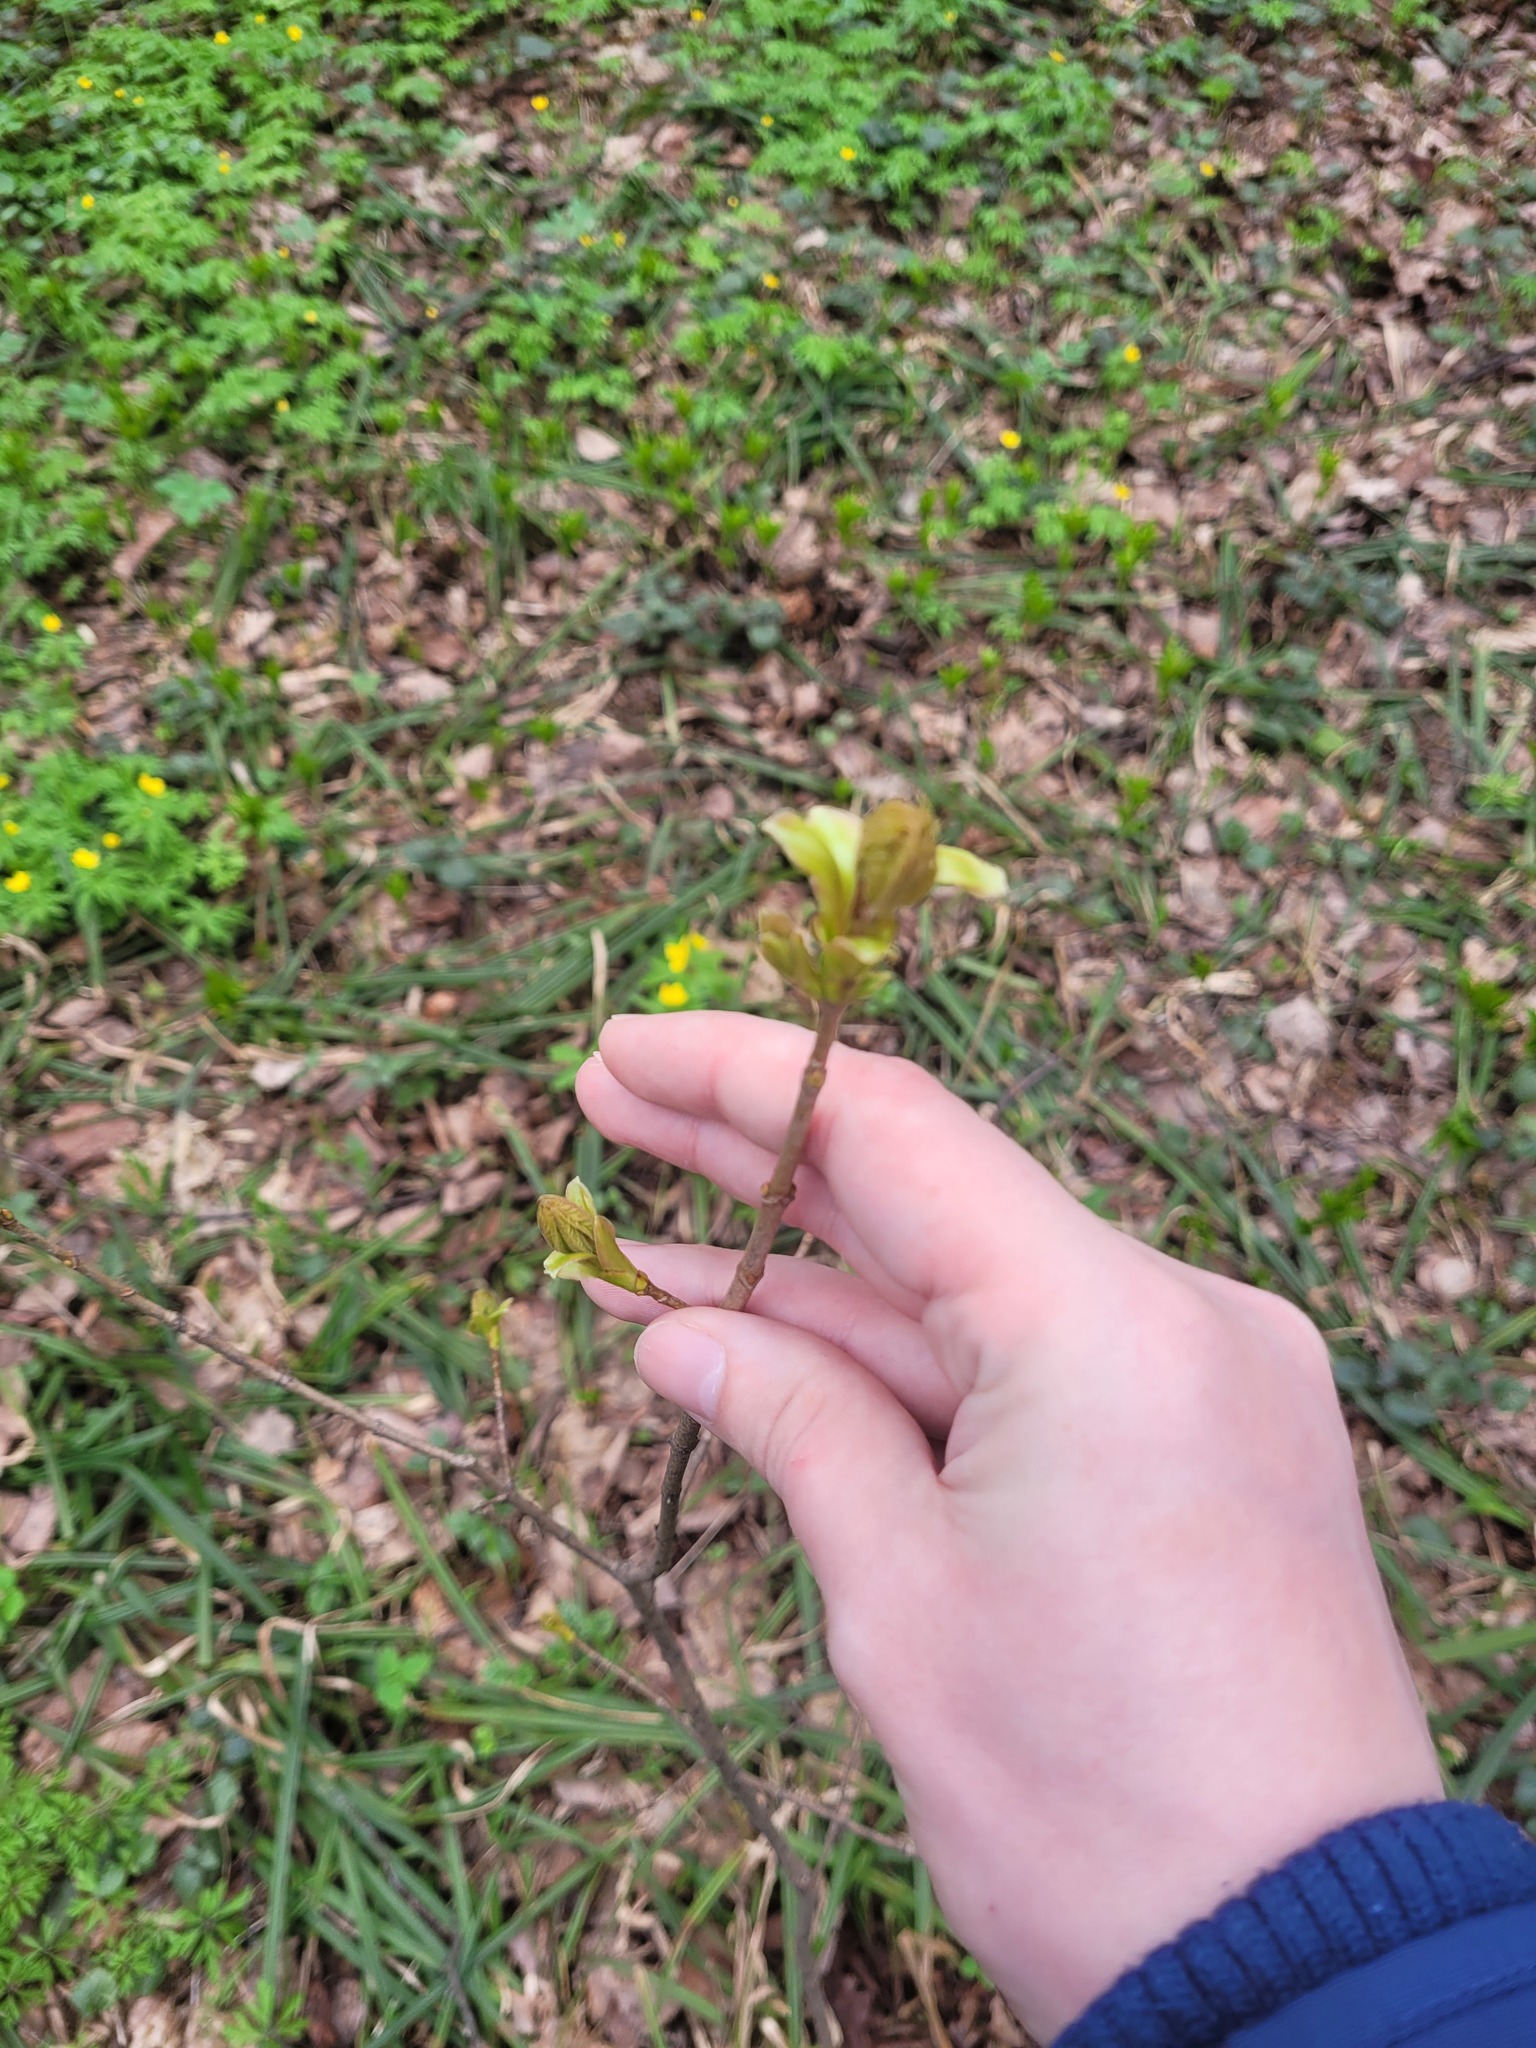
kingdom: Plantae
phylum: Tracheophyta
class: Magnoliopsida
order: Sapindales
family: Sapindaceae
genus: Acer
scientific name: Acer platanoides
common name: Norway maple
